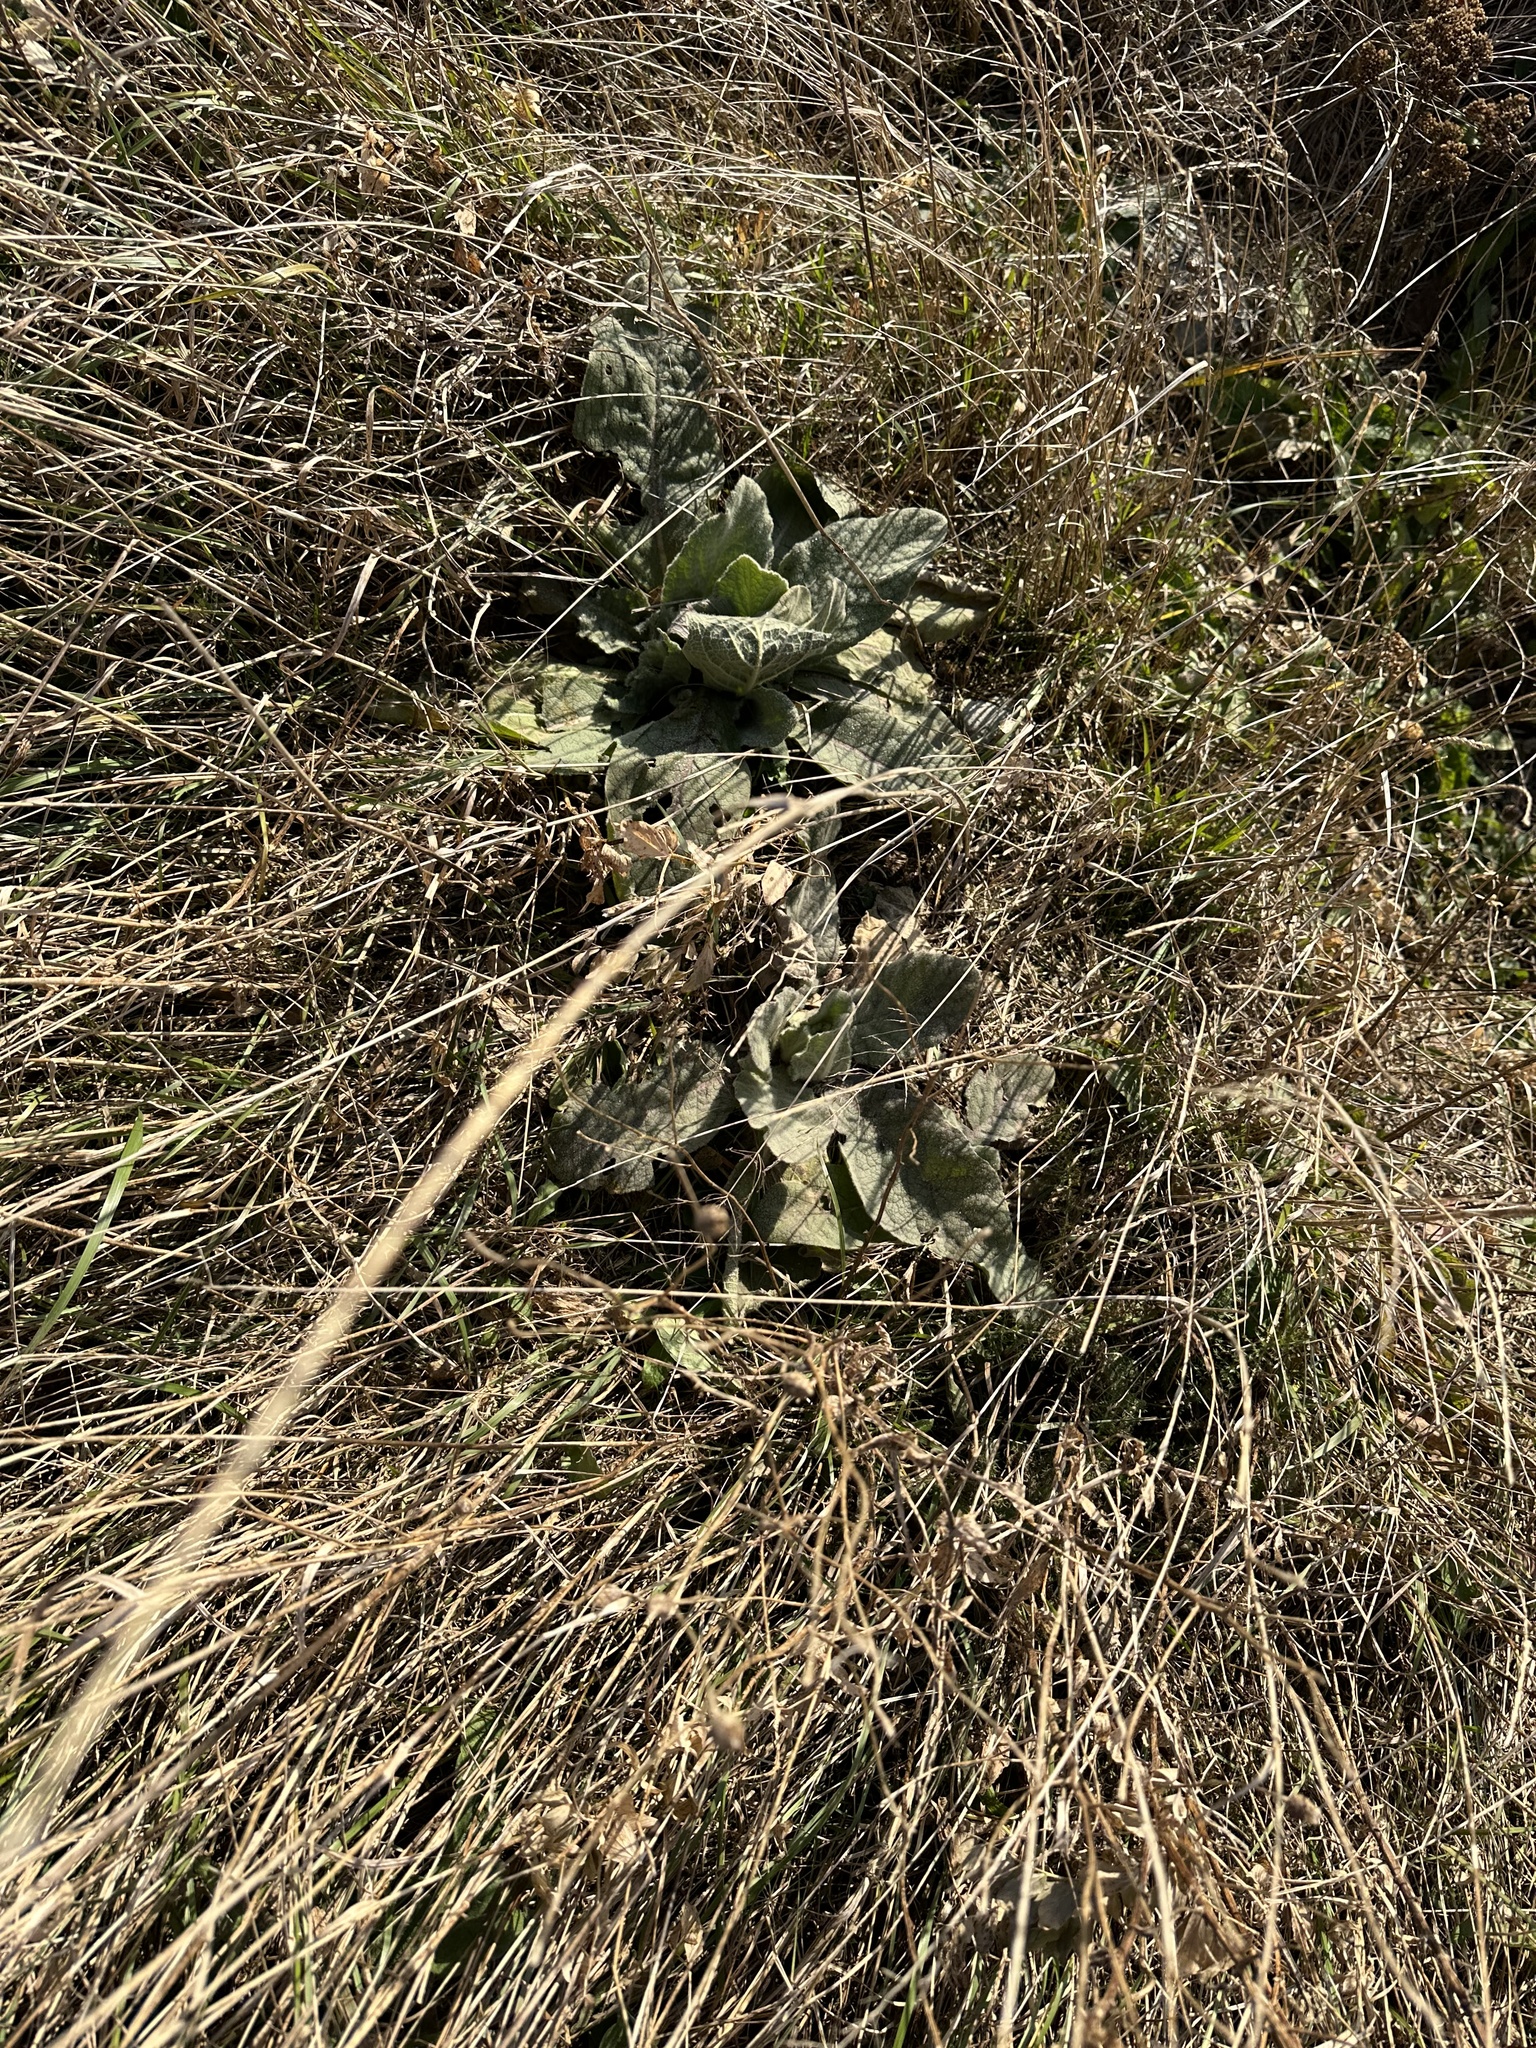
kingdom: Plantae
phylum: Tracheophyta
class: Magnoliopsida
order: Lamiales
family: Scrophulariaceae
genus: Verbascum
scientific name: Verbascum thapsus
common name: Common mullein
